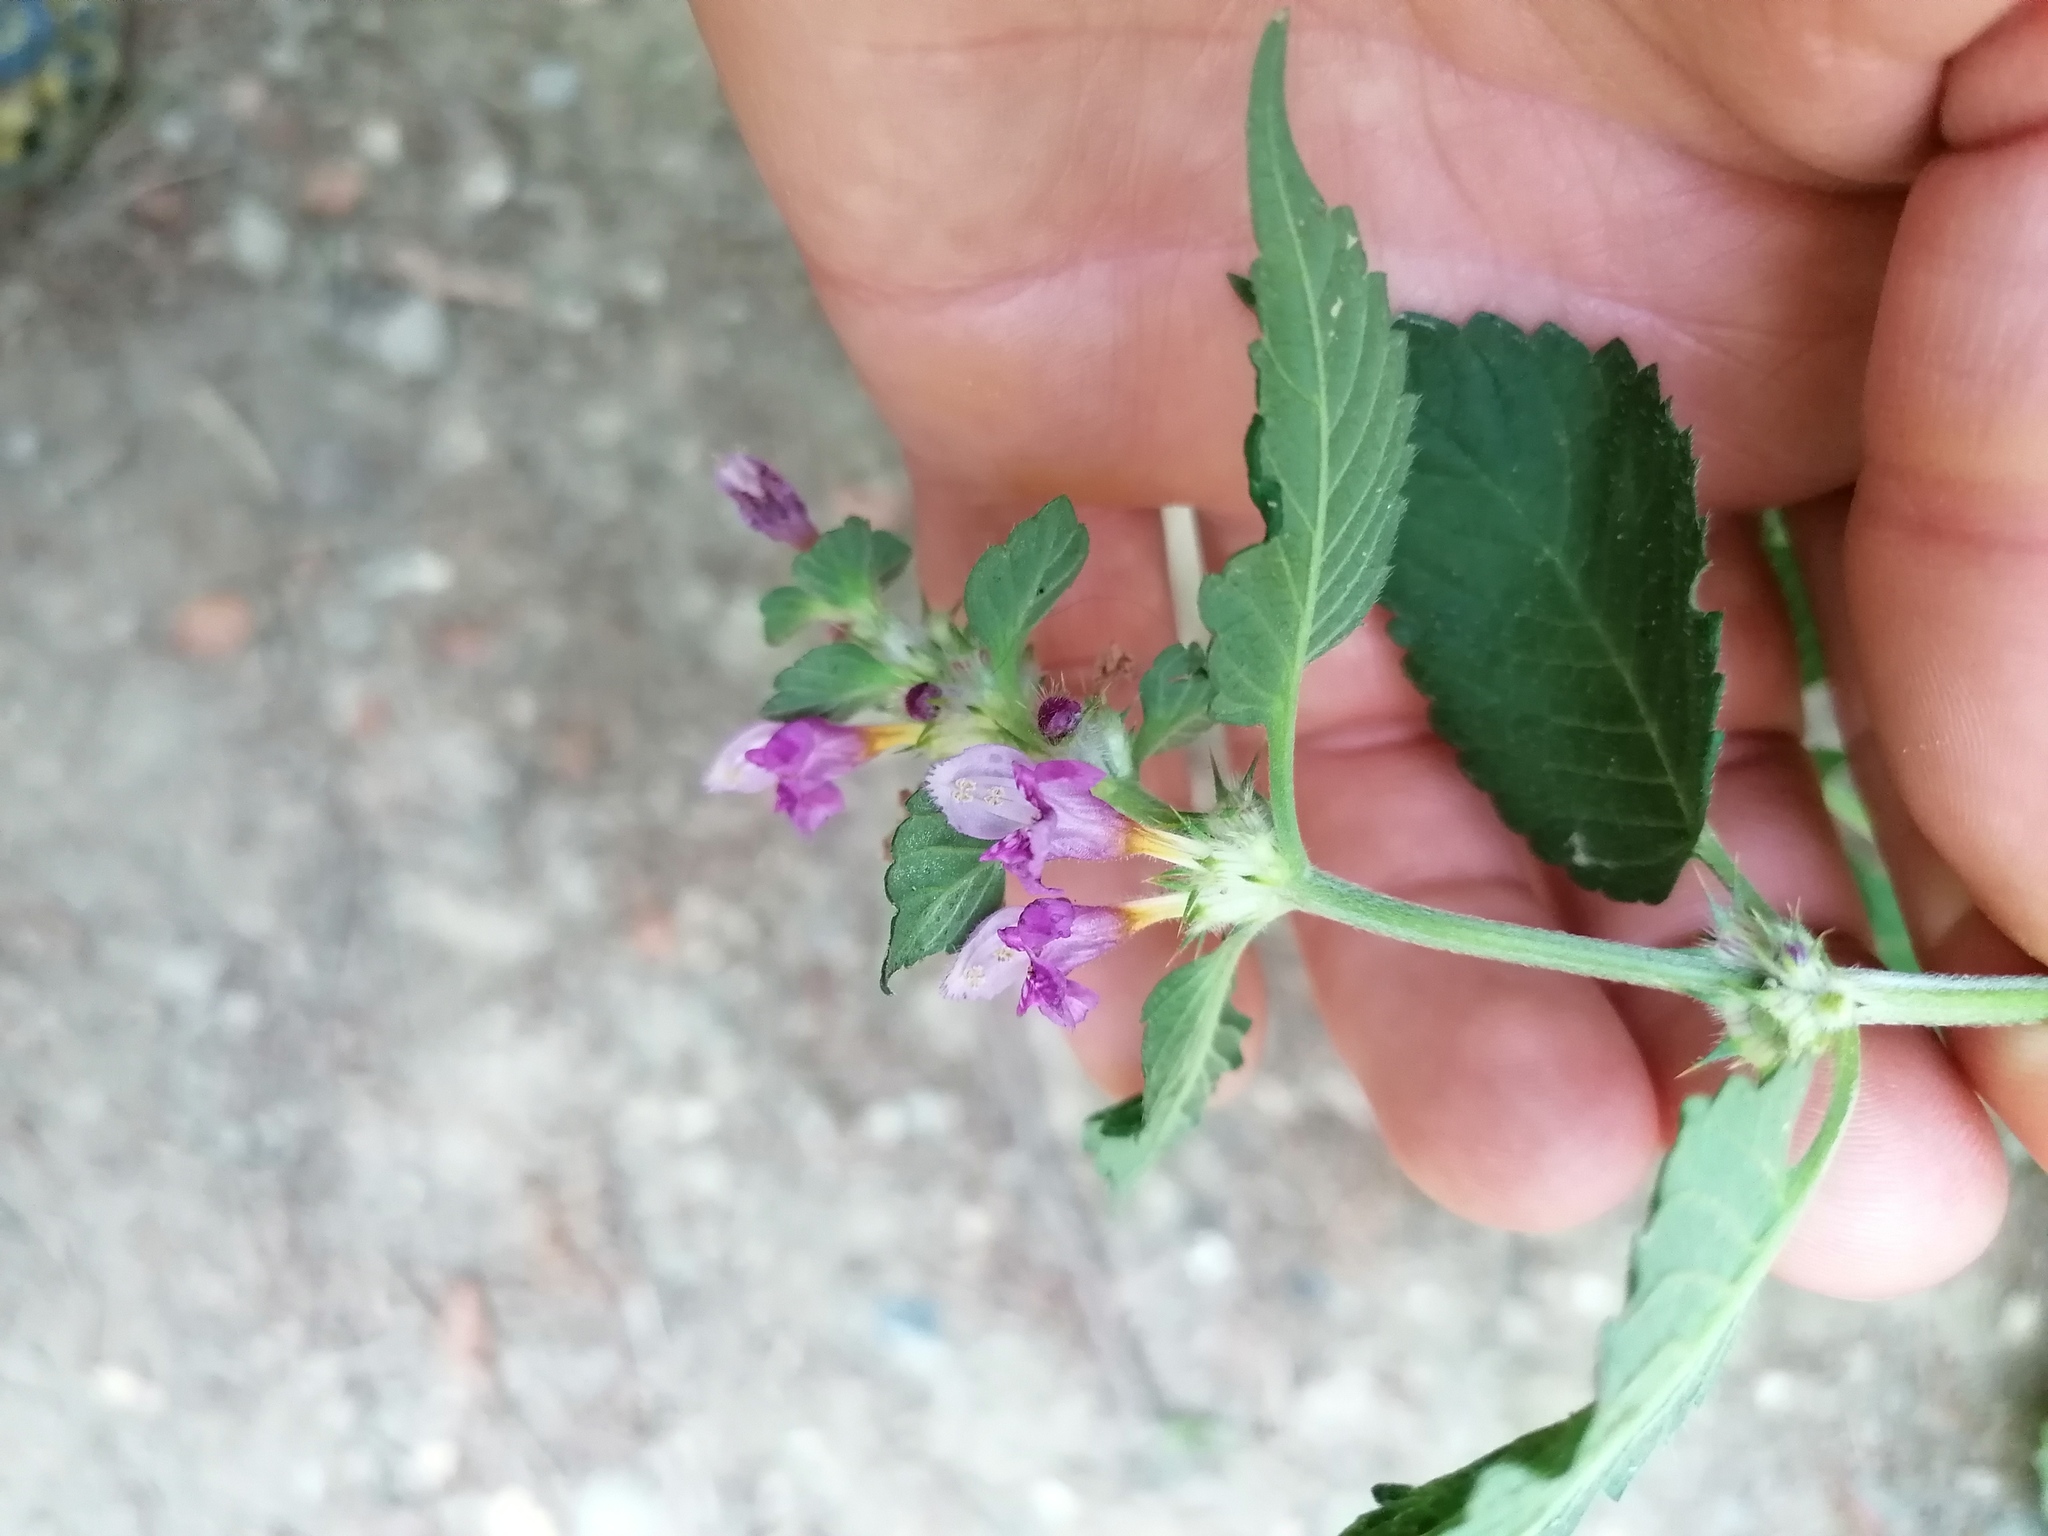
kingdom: Plantae
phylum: Tracheophyta
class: Magnoliopsida
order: Lamiales
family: Lamiaceae
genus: Galeopsis
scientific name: Galeopsis pubescens
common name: Downy hemp-nettle
